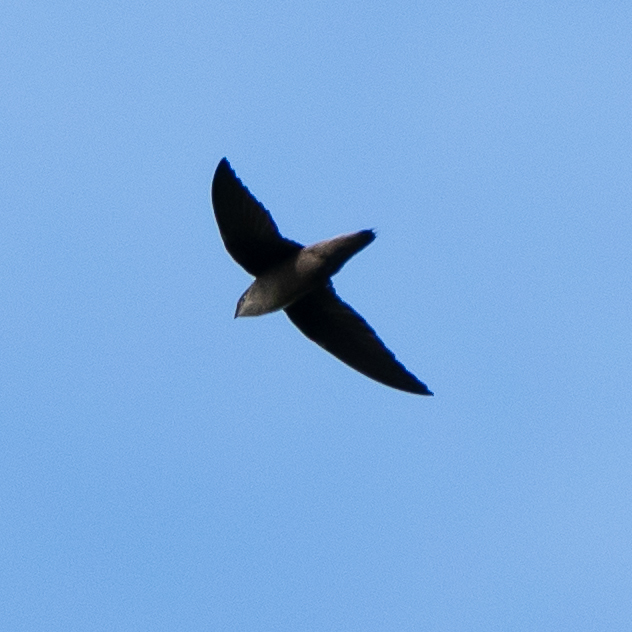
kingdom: Animalia
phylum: Chordata
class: Aves
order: Apodiformes
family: Apodidae
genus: Chaetura
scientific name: Chaetura pelagica
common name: Chimney swift
